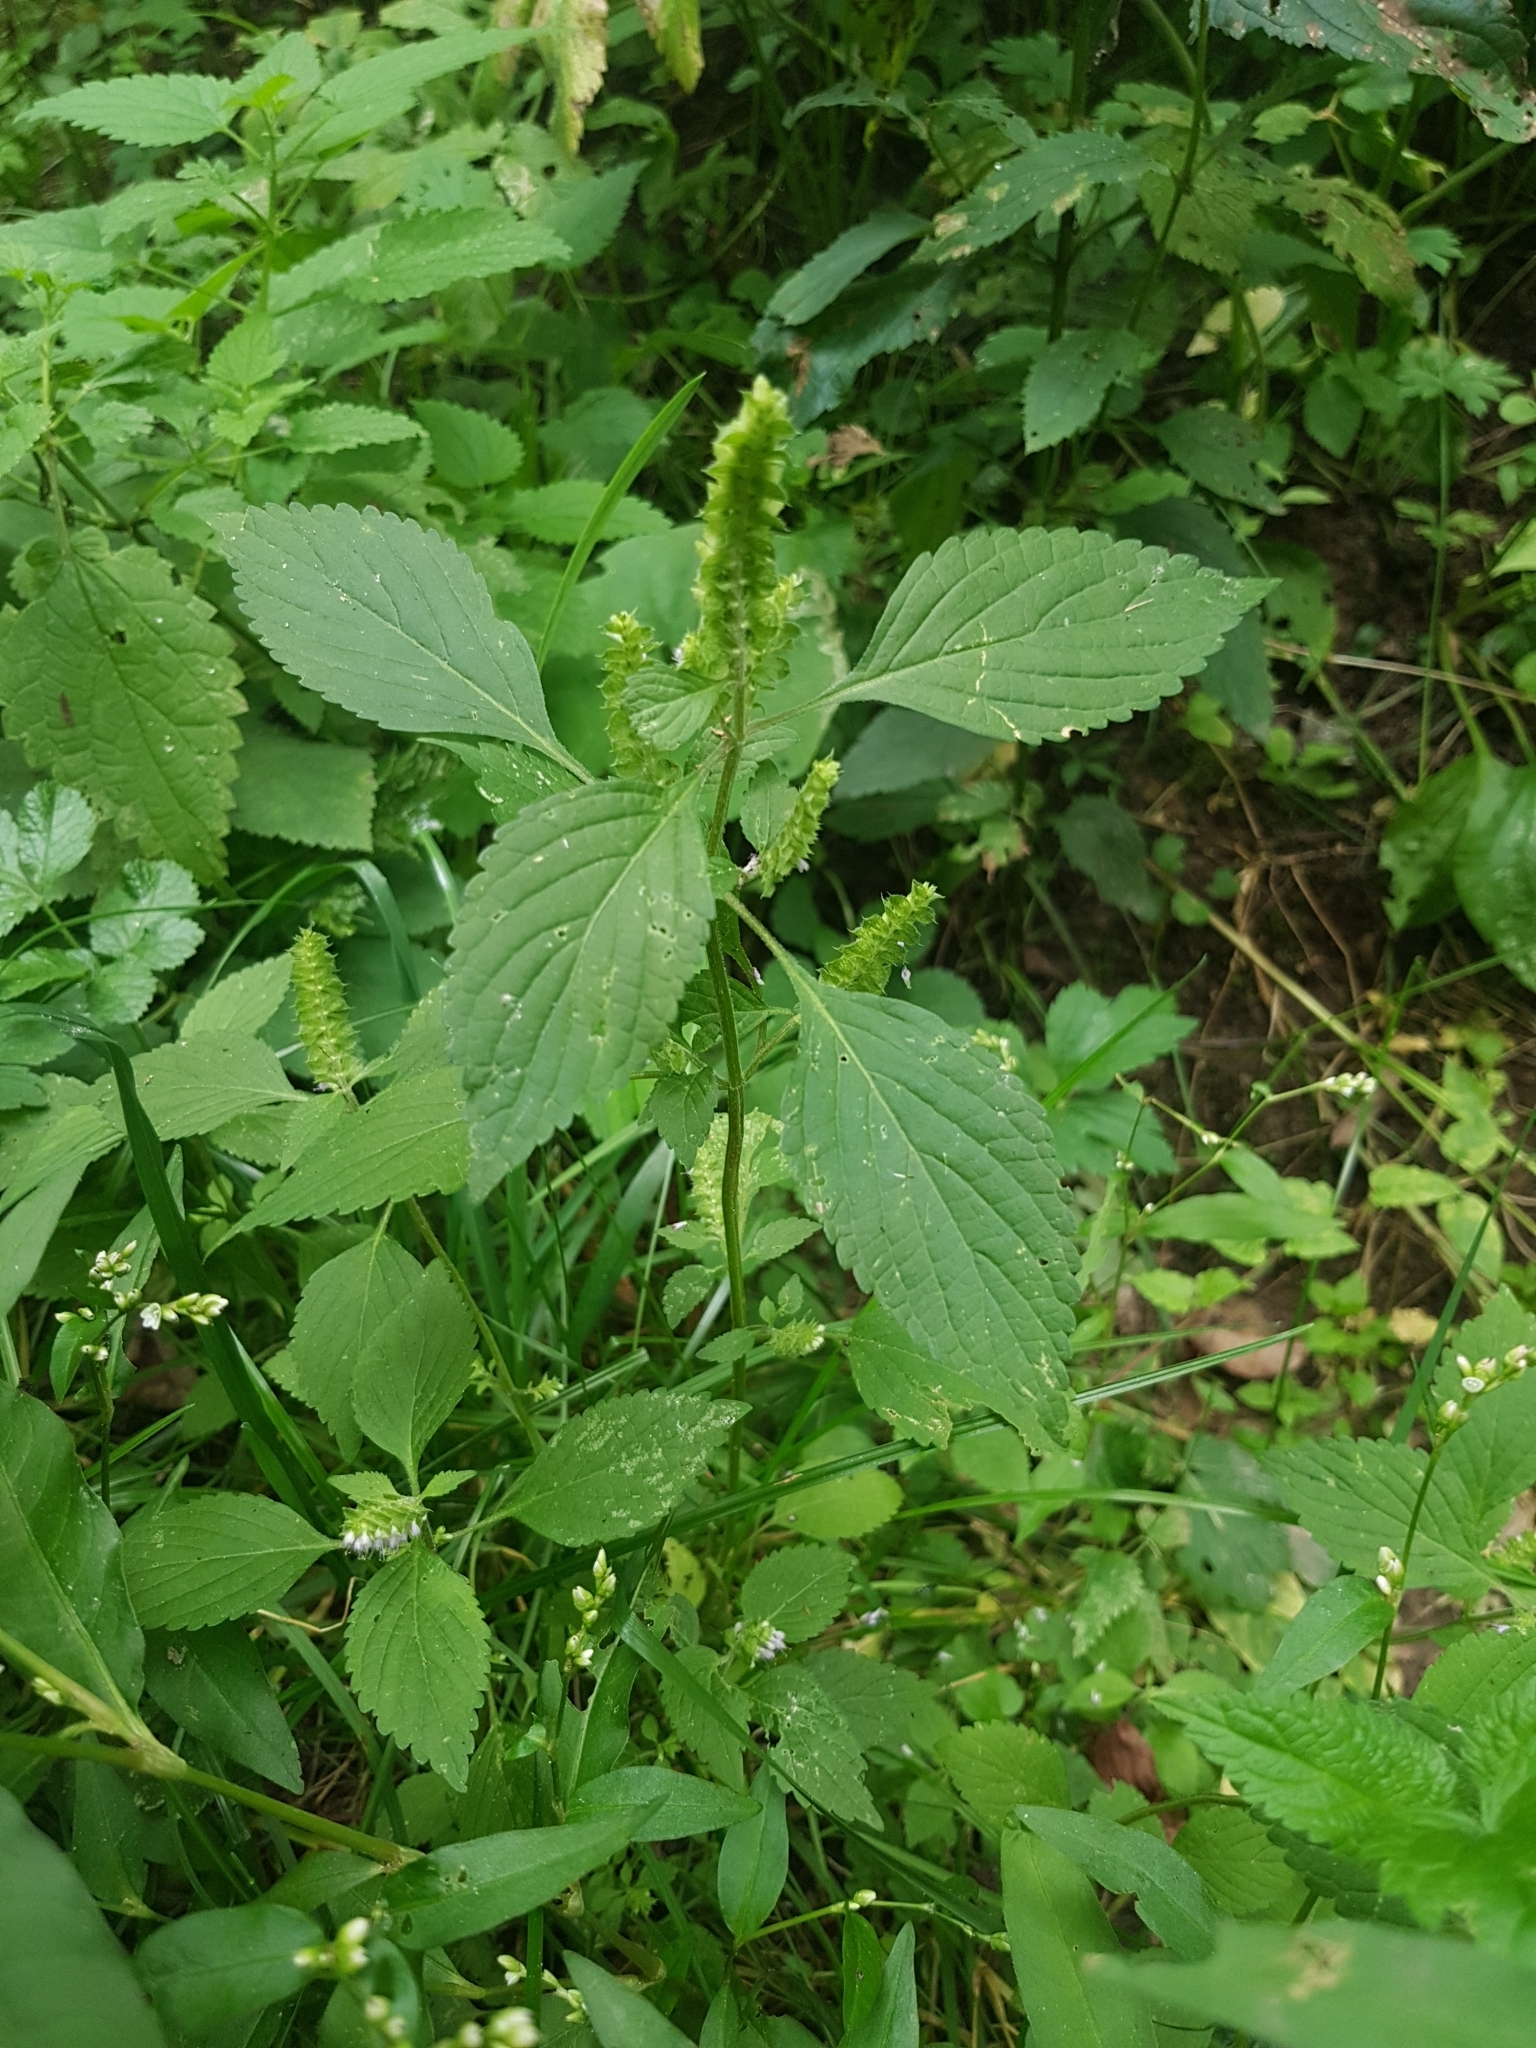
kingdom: Plantae
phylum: Tracheophyta
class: Magnoliopsida
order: Lamiales
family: Lamiaceae
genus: Elsholtzia
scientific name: Elsholtzia ciliata
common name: Ciliate elsholtzia
